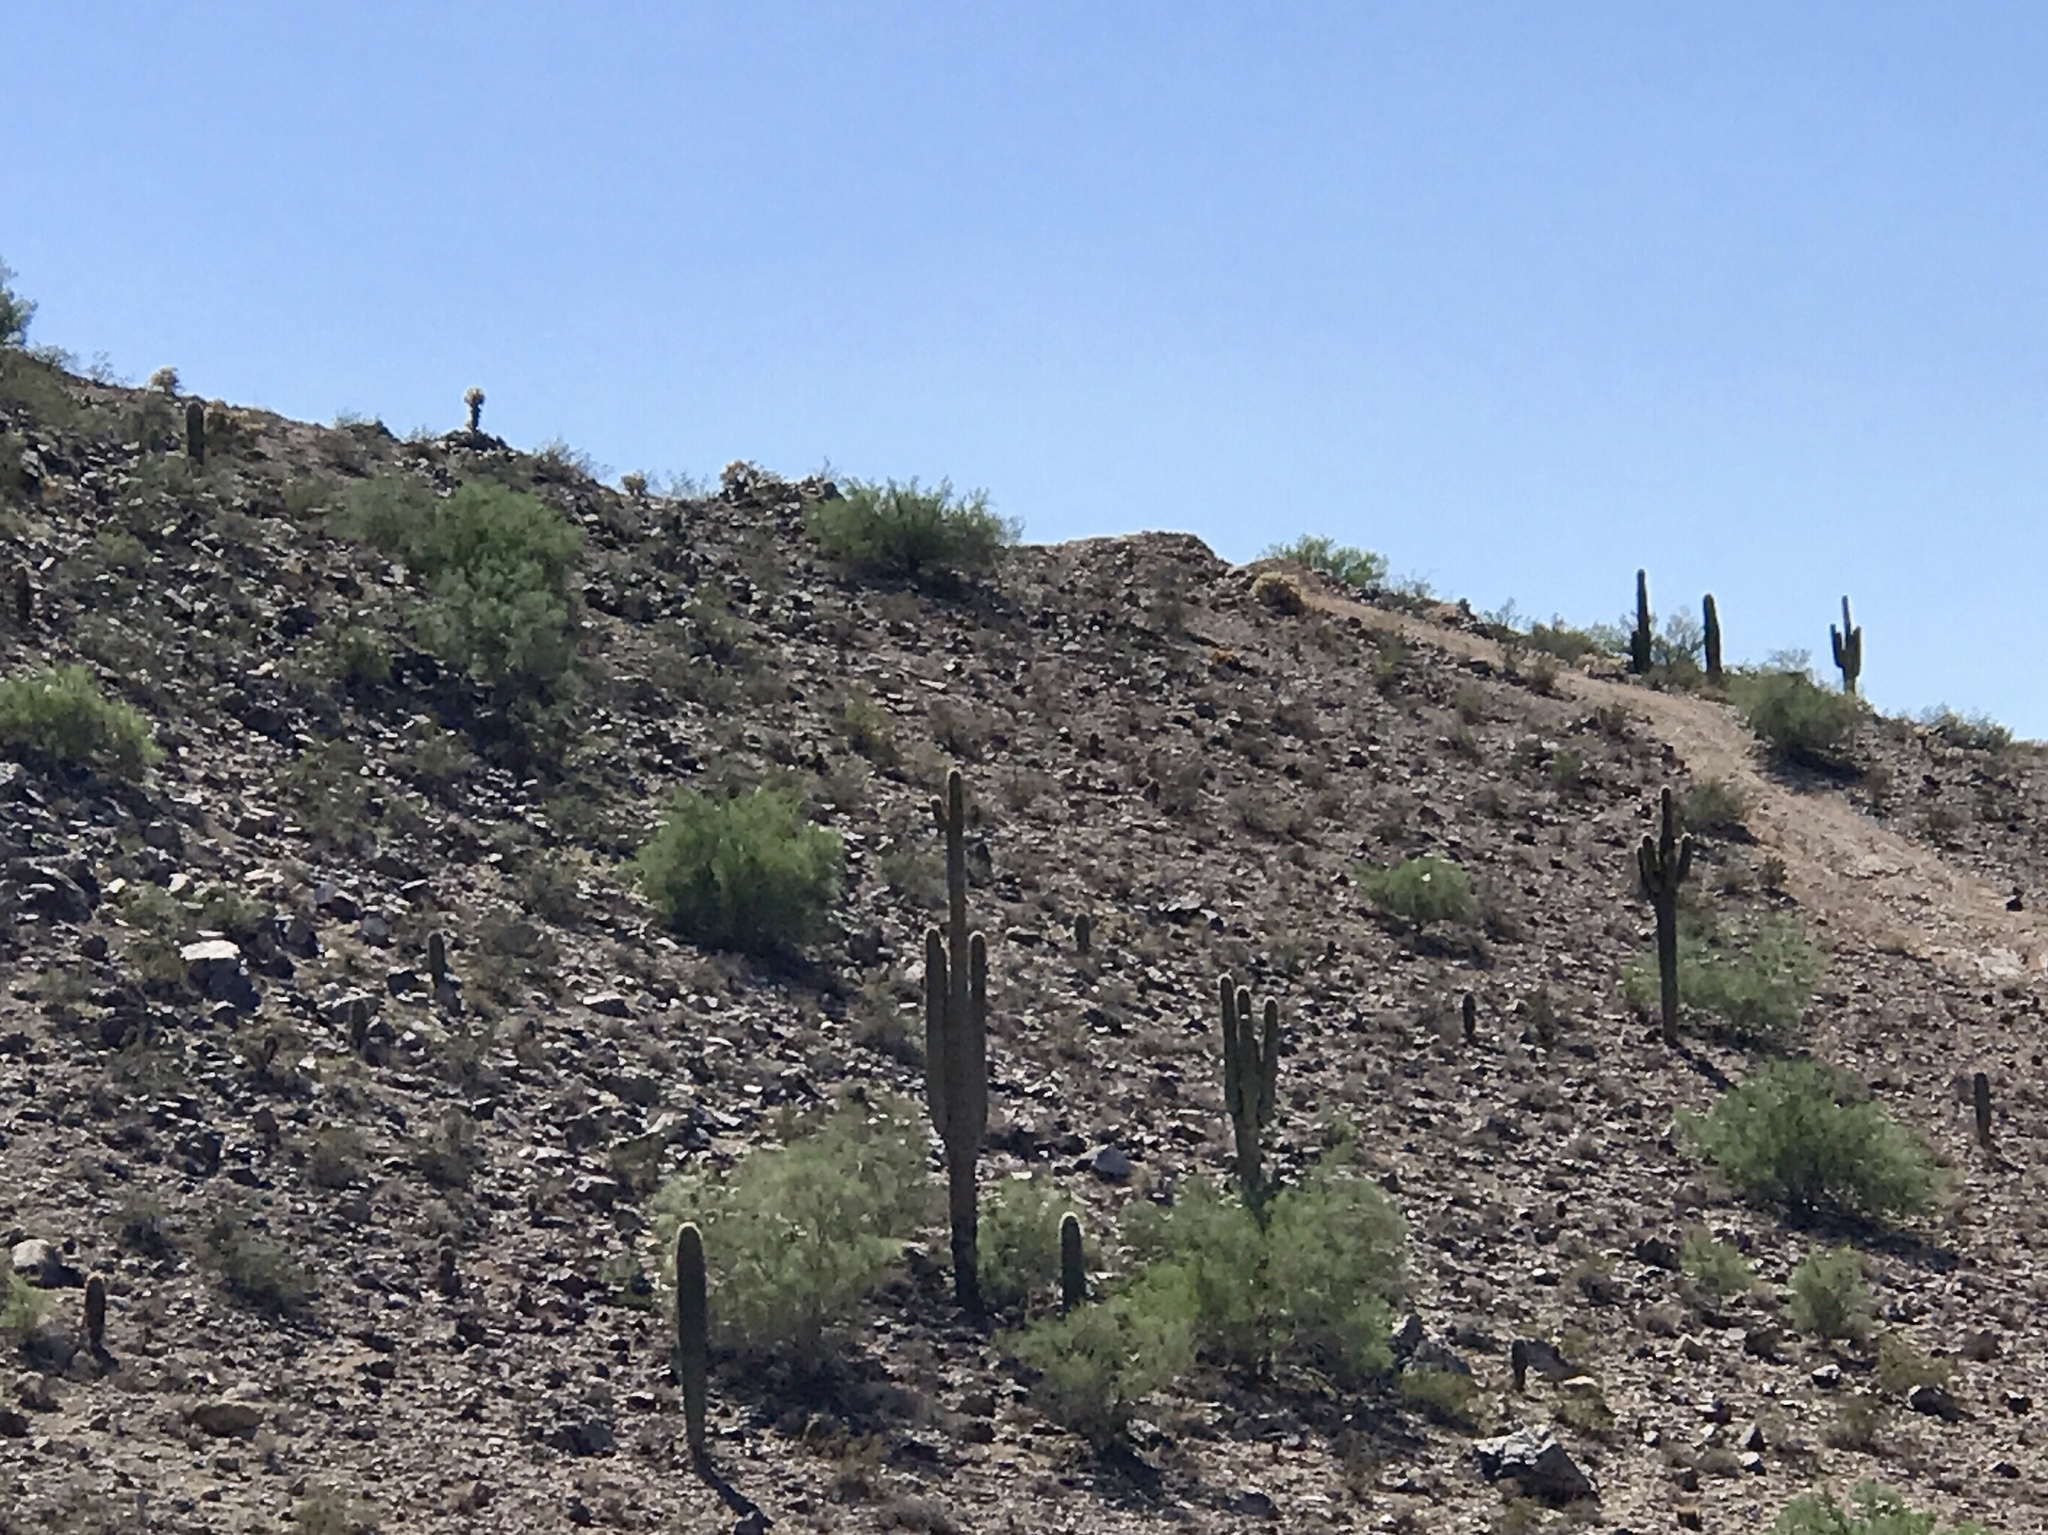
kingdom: Plantae
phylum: Tracheophyta
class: Magnoliopsida
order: Caryophyllales
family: Cactaceae
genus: Carnegiea
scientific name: Carnegiea gigantea
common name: Saguaro
